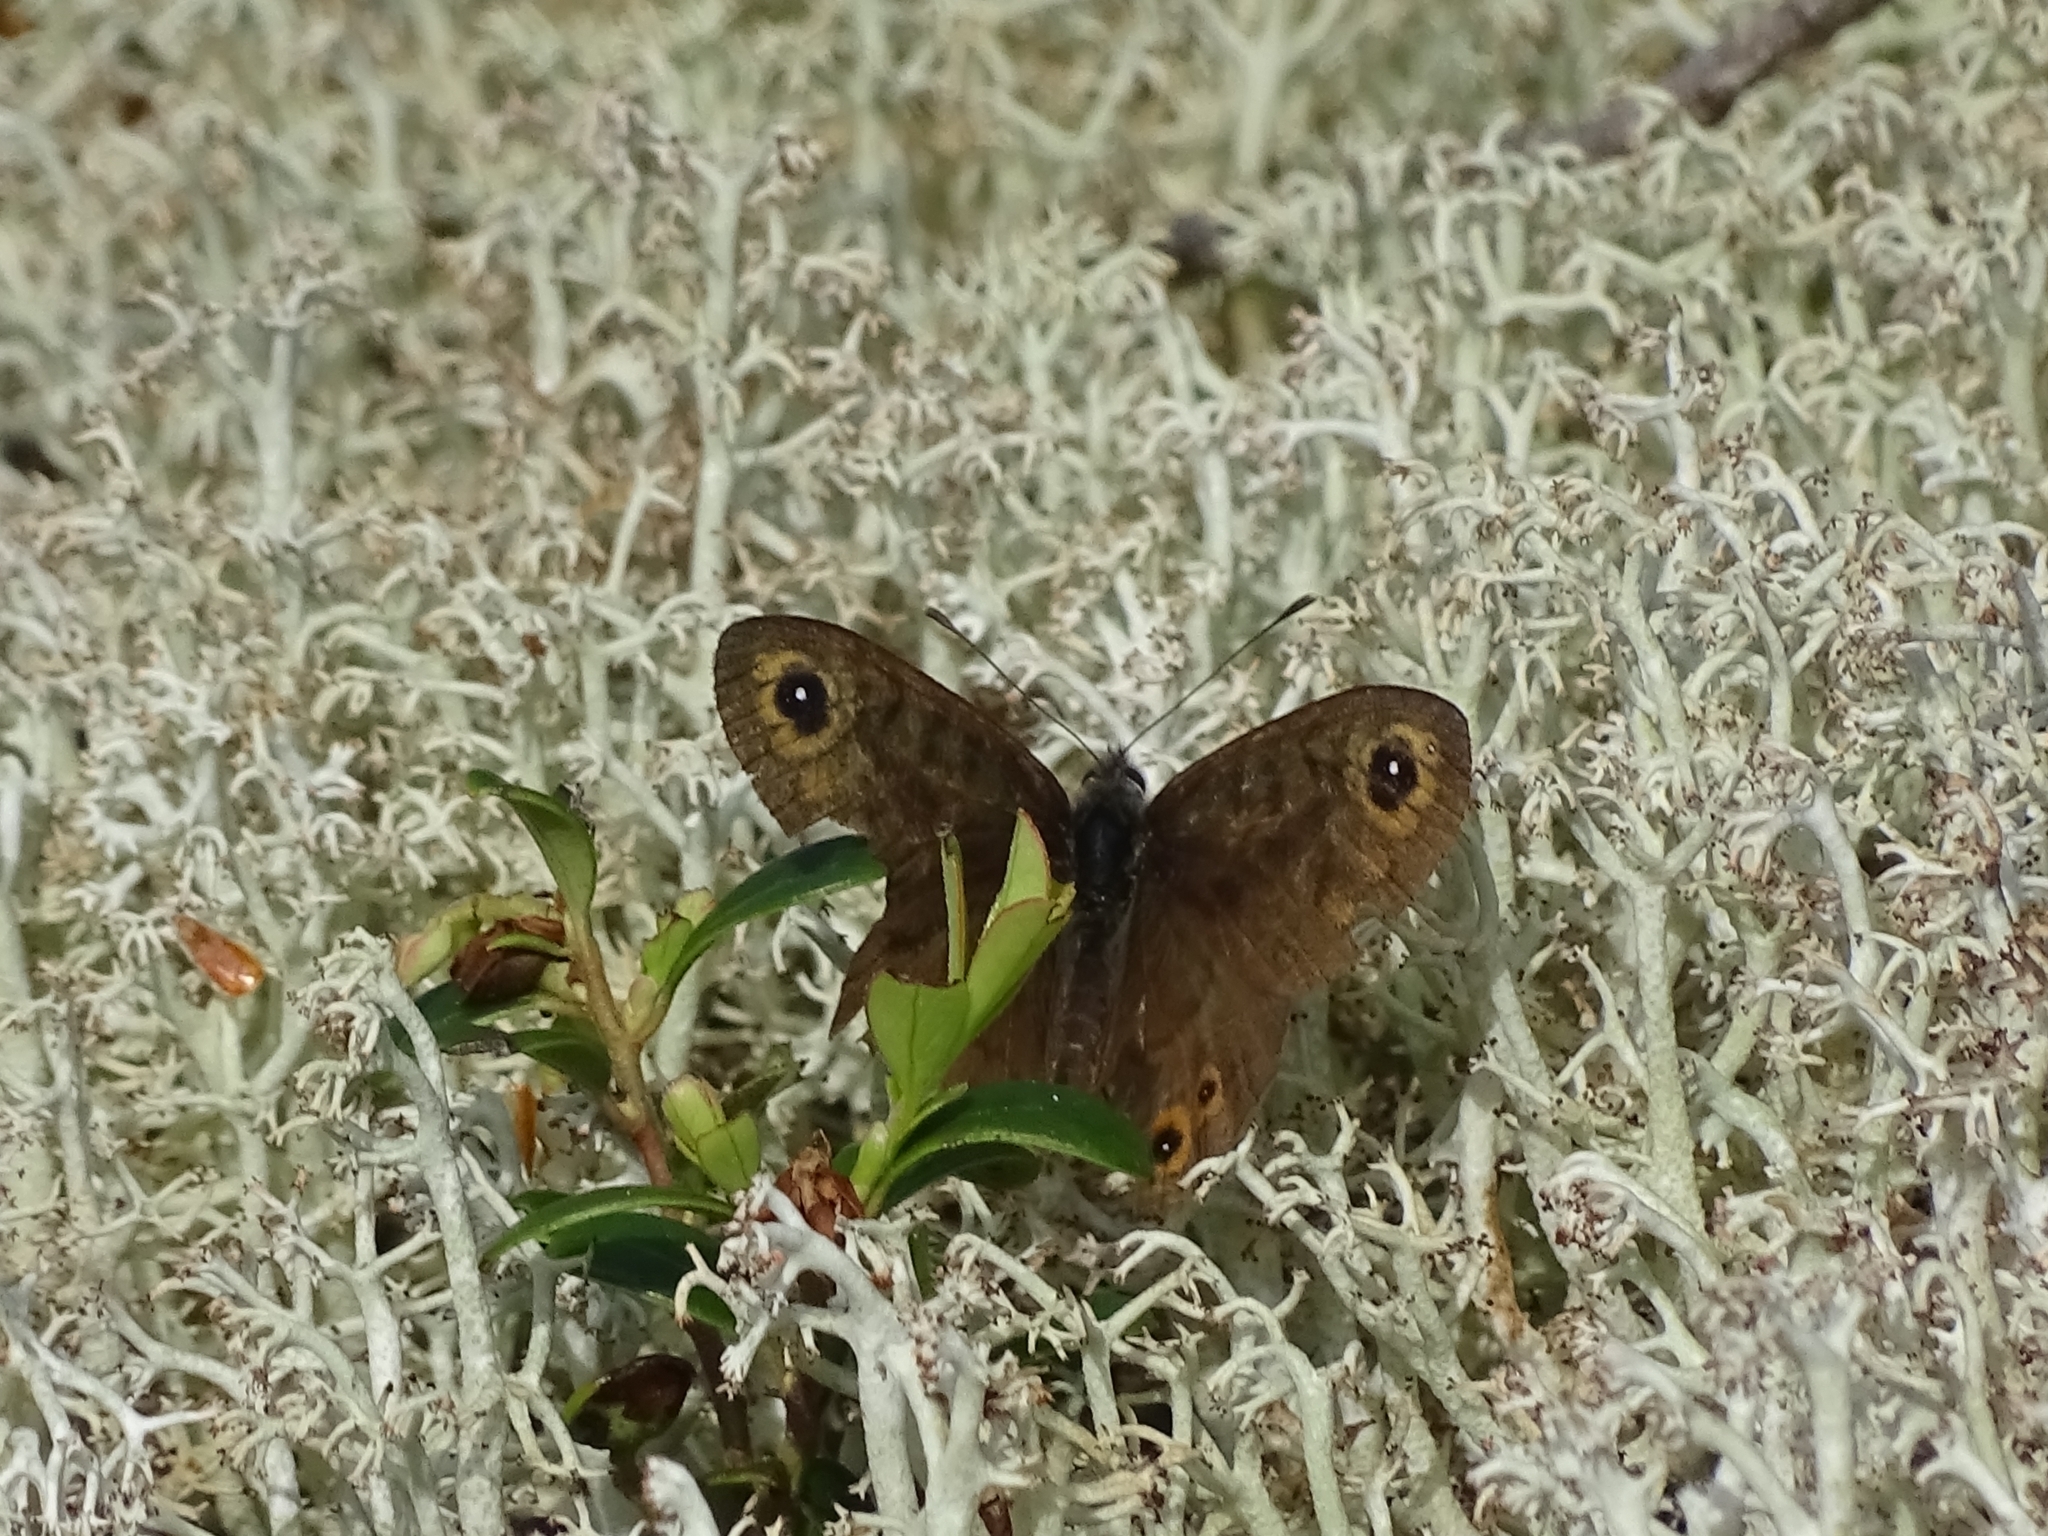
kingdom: Animalia
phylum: Arthropoda
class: Insecta
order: Lepidoptera
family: Nymphalidae
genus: Pararge
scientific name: Pararge petropolitana
